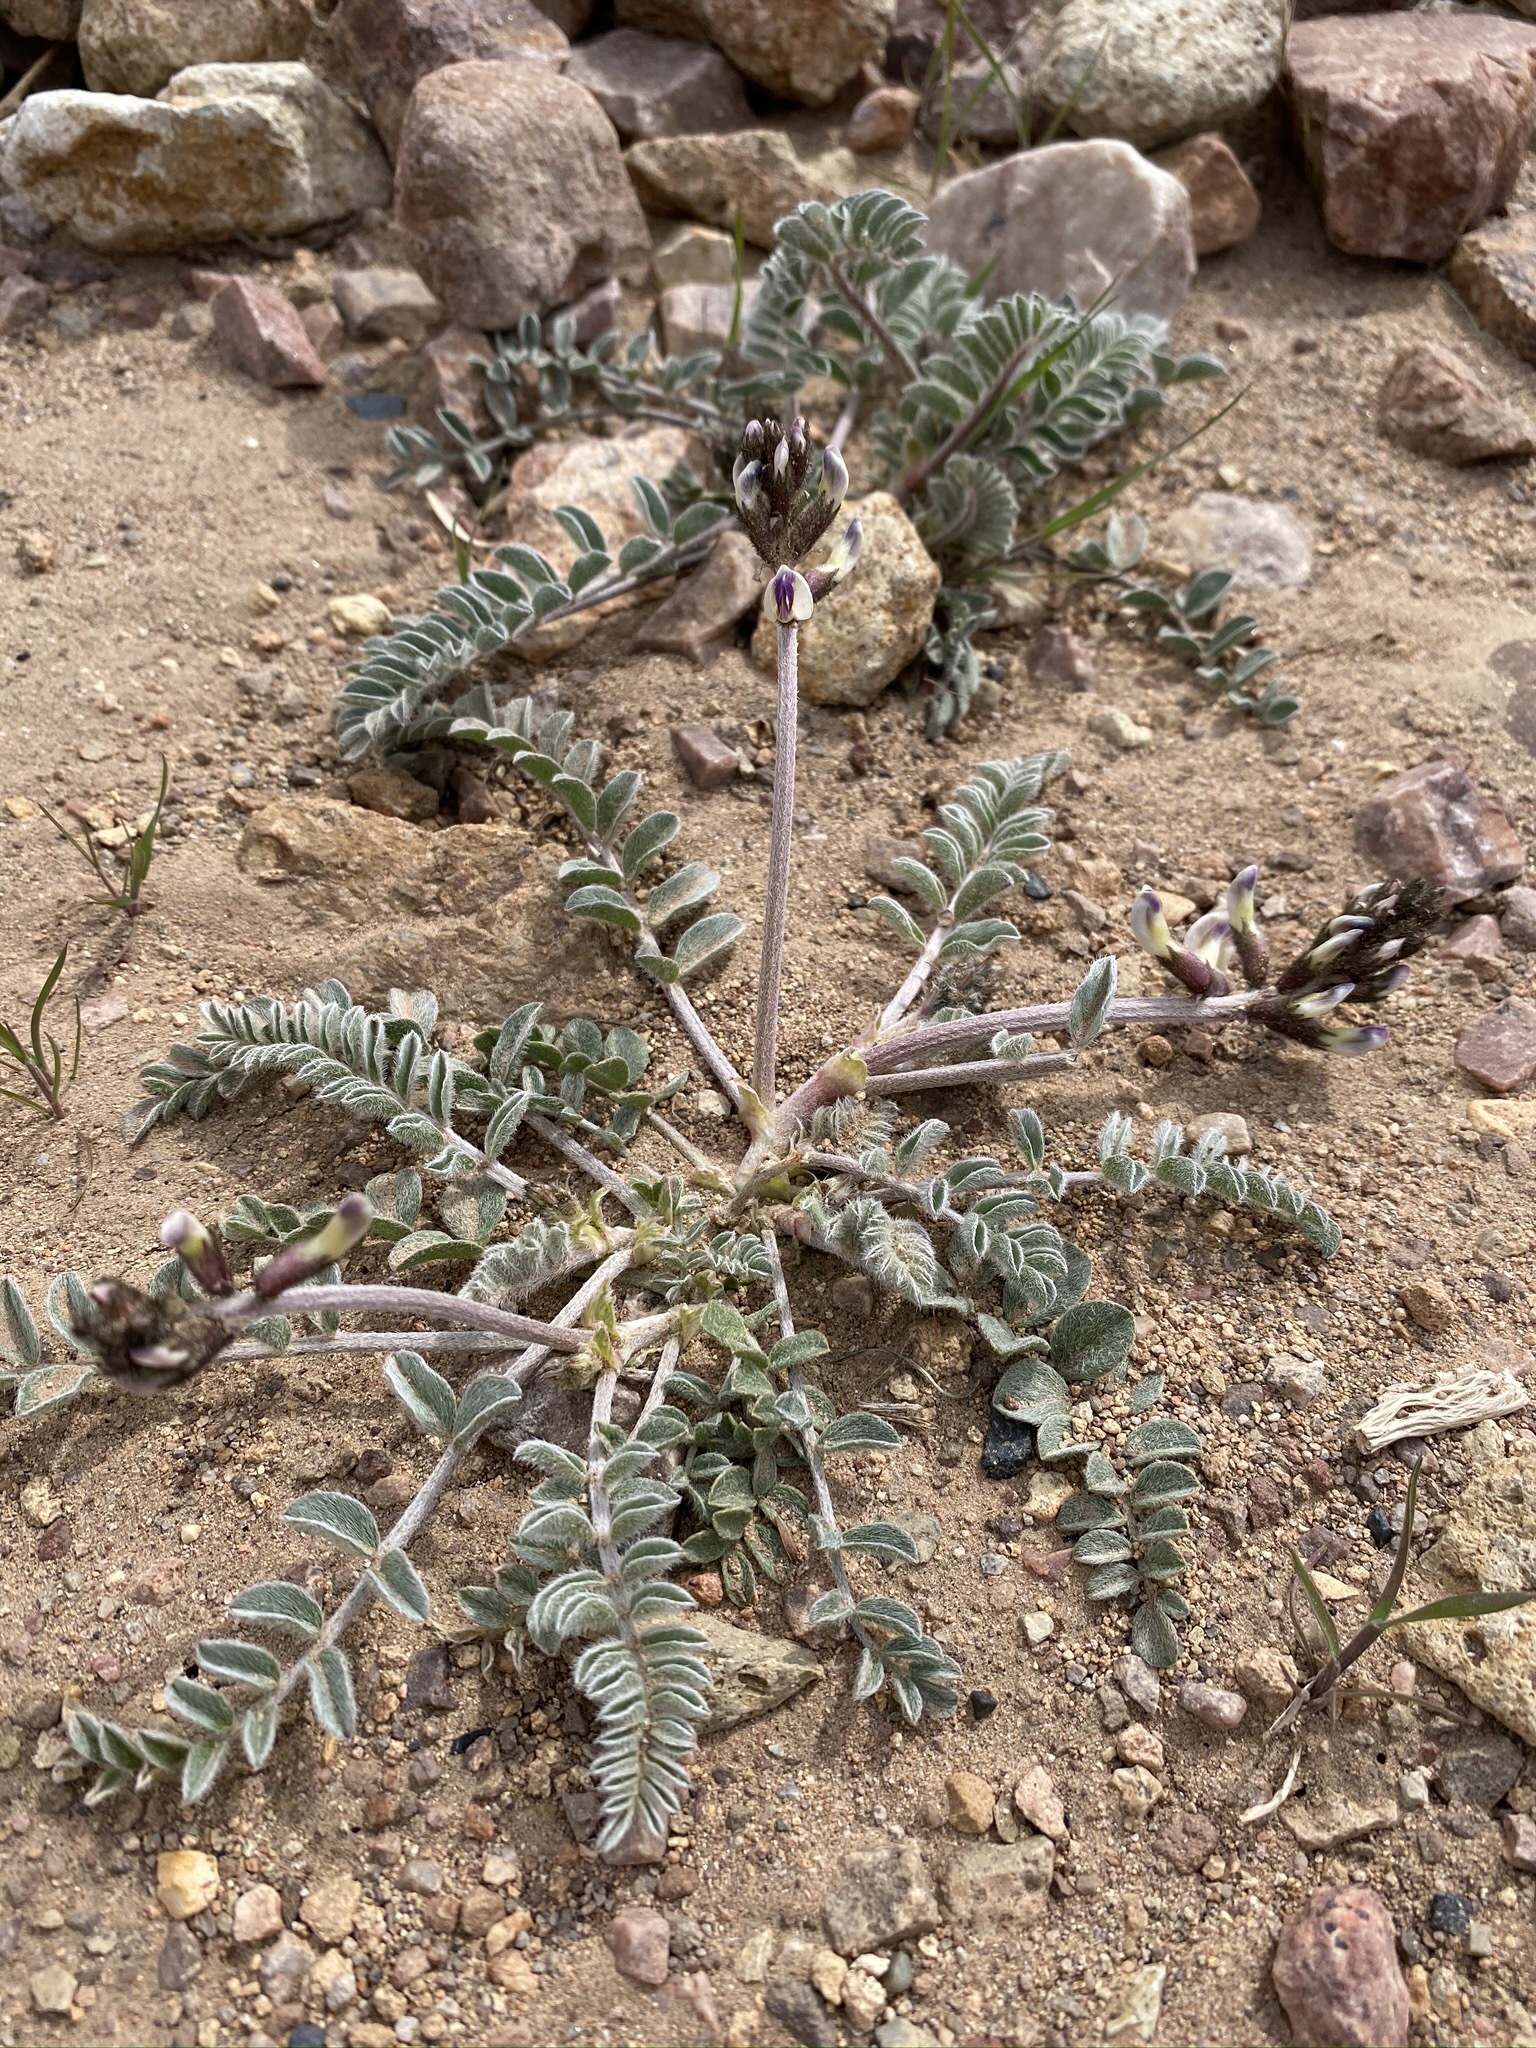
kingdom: Plantae
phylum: Tracheophyta
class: Magnoliopsida
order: Fabales
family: Fabaceae
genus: Astragalus
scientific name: Astragalus layneae
